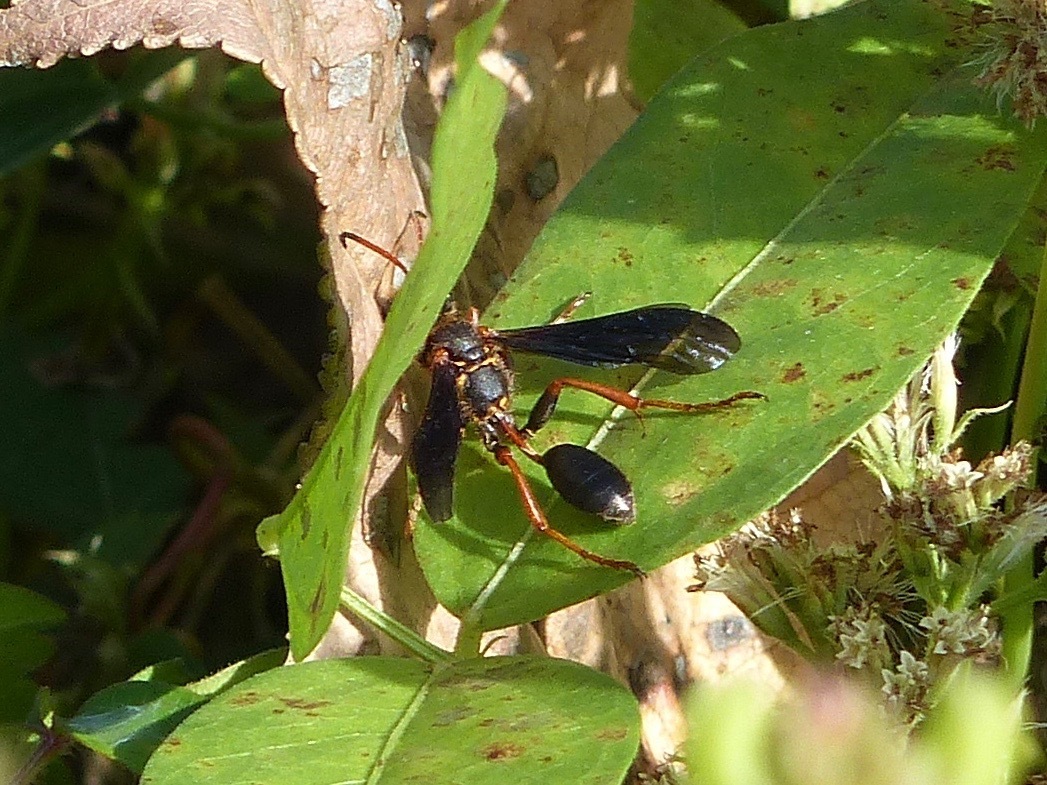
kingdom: Animalia
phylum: Arthropoda
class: Insecta
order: Hymenoptera
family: Sphecidae
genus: Isodontia
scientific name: Isodontia exornata
